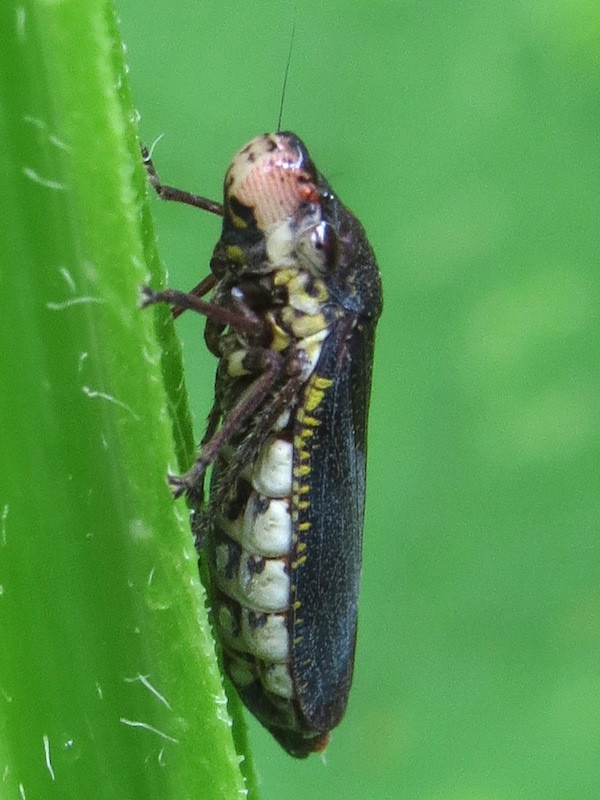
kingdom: Animalia
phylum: Arthropoda
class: Insecta
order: Hemiptera
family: Cicadellidae
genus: Paraulacizes
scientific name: Paraulacizes irrorata
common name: Speckled sharpshooter
